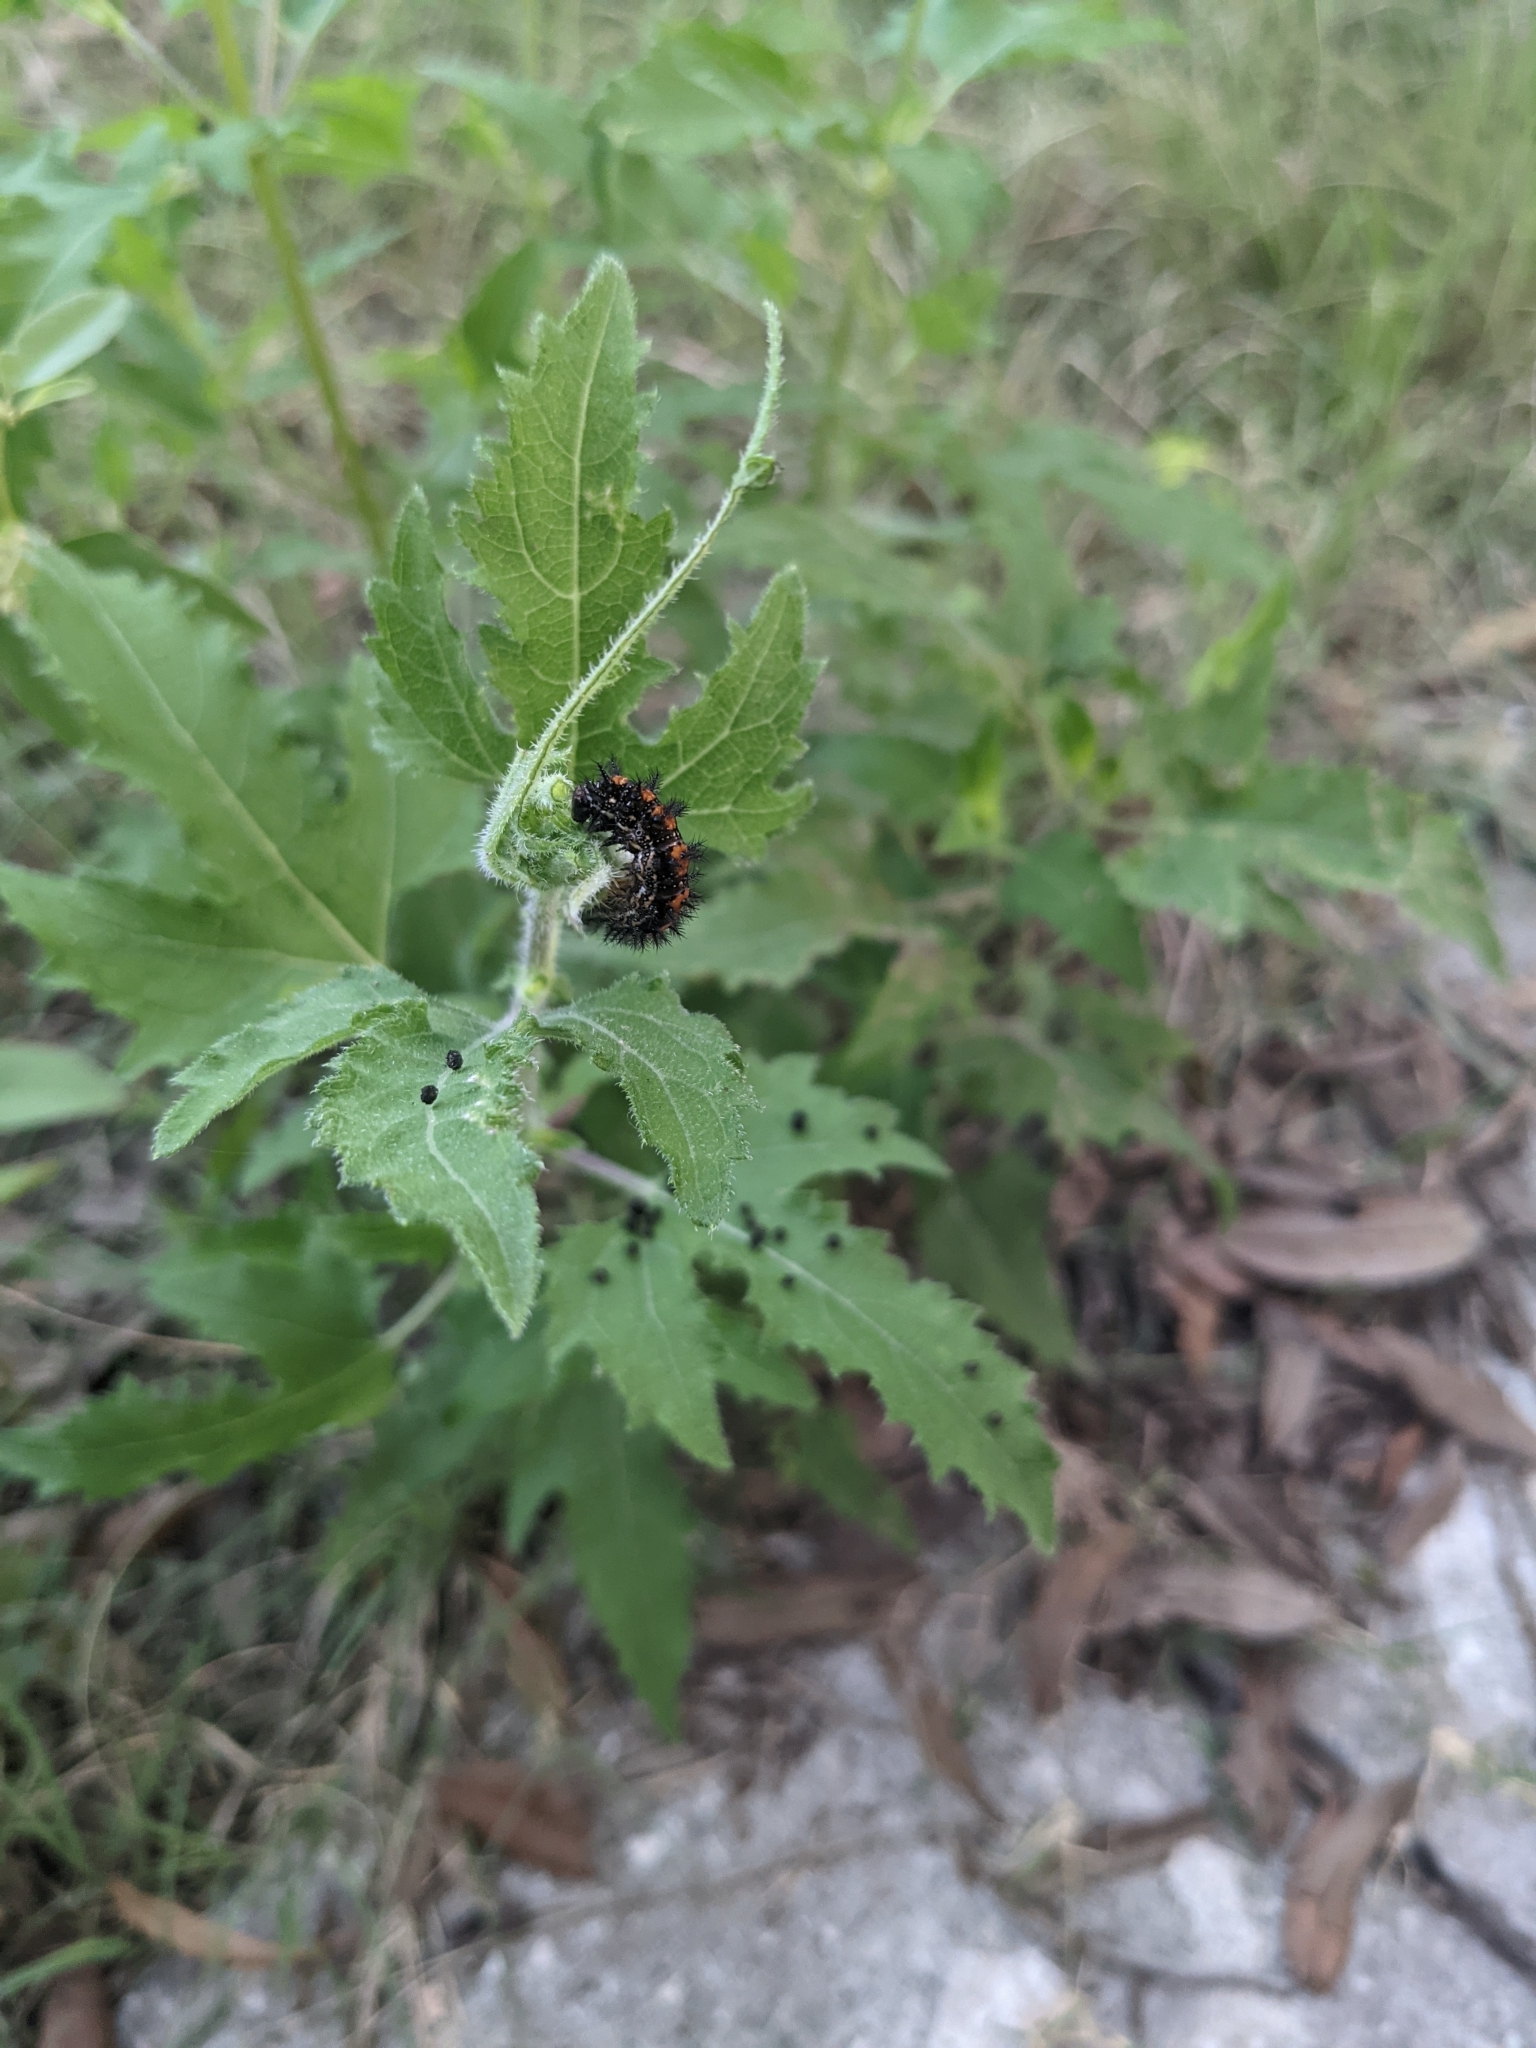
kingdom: Animalia
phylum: Arthropoda
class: Insecta
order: Lepidoptera
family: Nymphalidae
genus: Chlosyne
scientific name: Chlosyne lacinia
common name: Bordered patch
